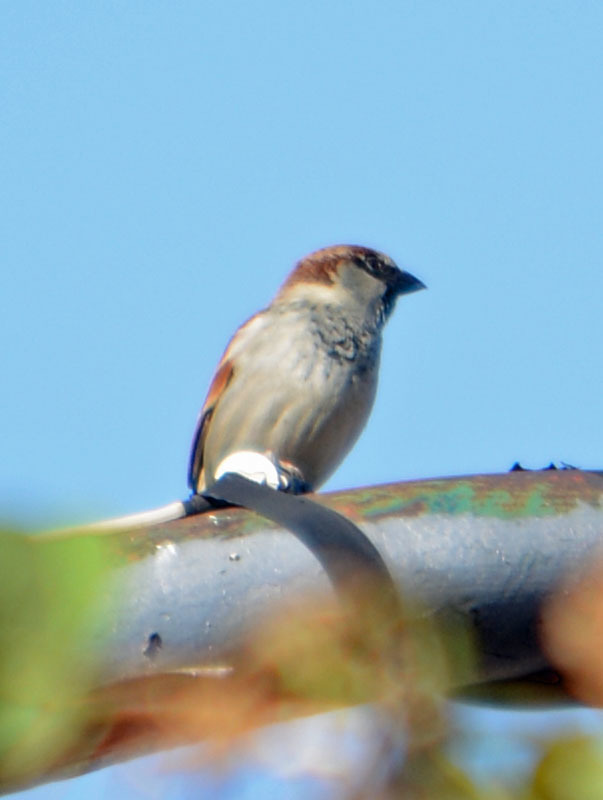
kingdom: Animalia
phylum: Chordata
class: Aves
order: Passeriformes
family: Passeridae
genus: Passer
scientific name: Passer domesticus
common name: House sparrow
